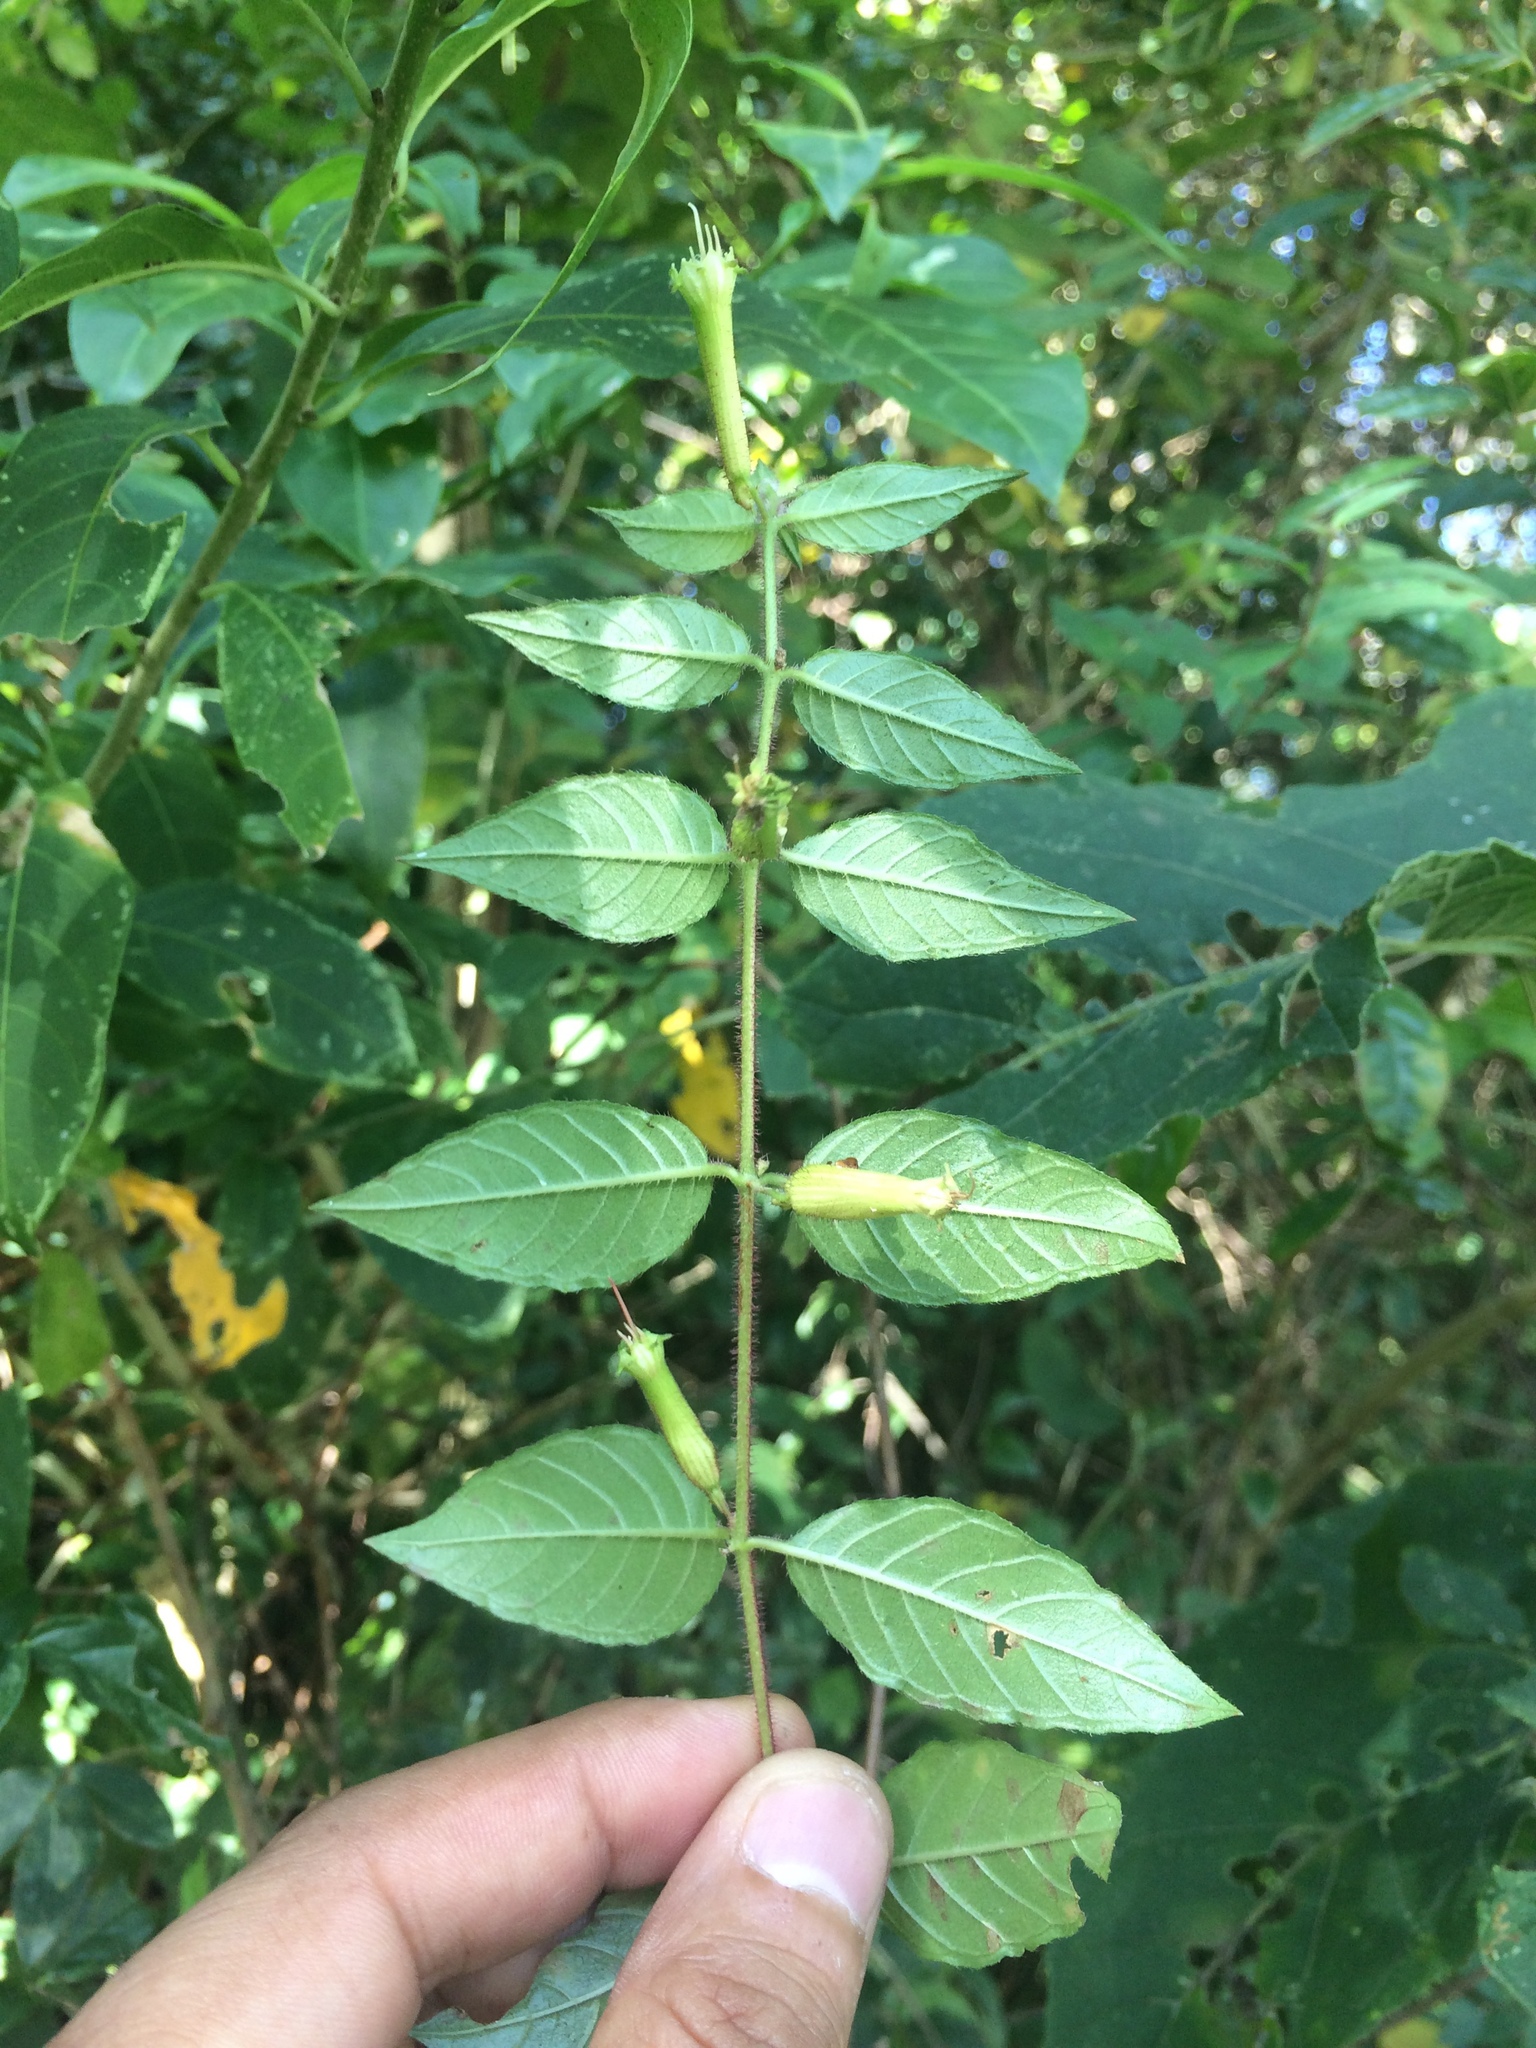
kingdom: Plantae
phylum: Tracheophyta
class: Magnoliopsida
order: Myrtales
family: Lythraceae
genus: Cuphea
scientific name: Cuphea nitidula
